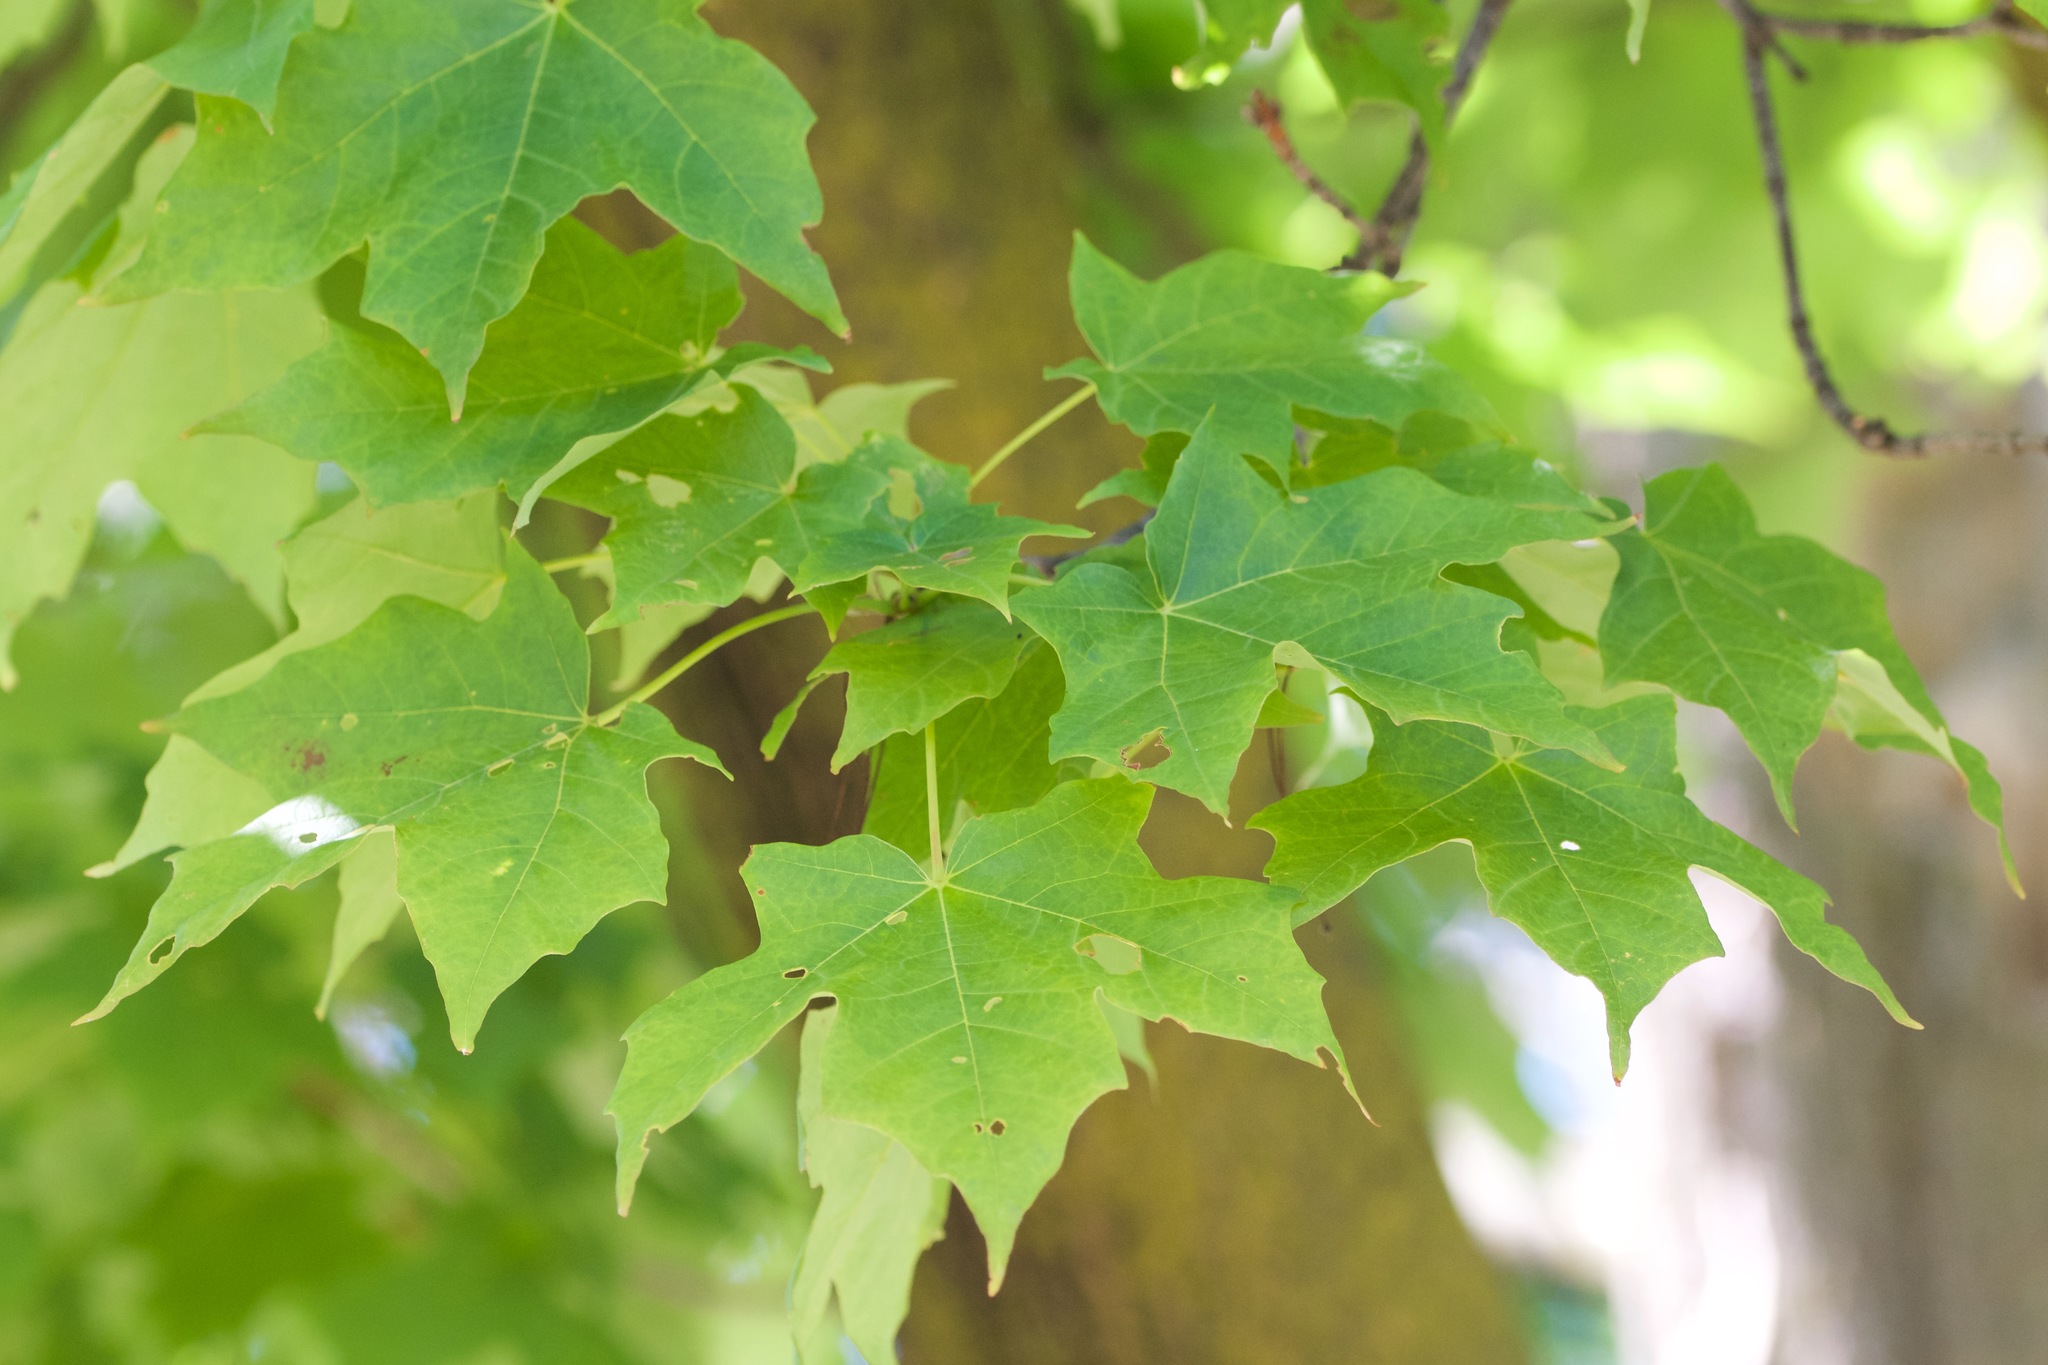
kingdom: Plantae
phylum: Tracheophyta
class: Magnoliopsida
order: Sapindales
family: Sapindaceae
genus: Acer
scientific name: Acer saccharum
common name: Sugar maple
